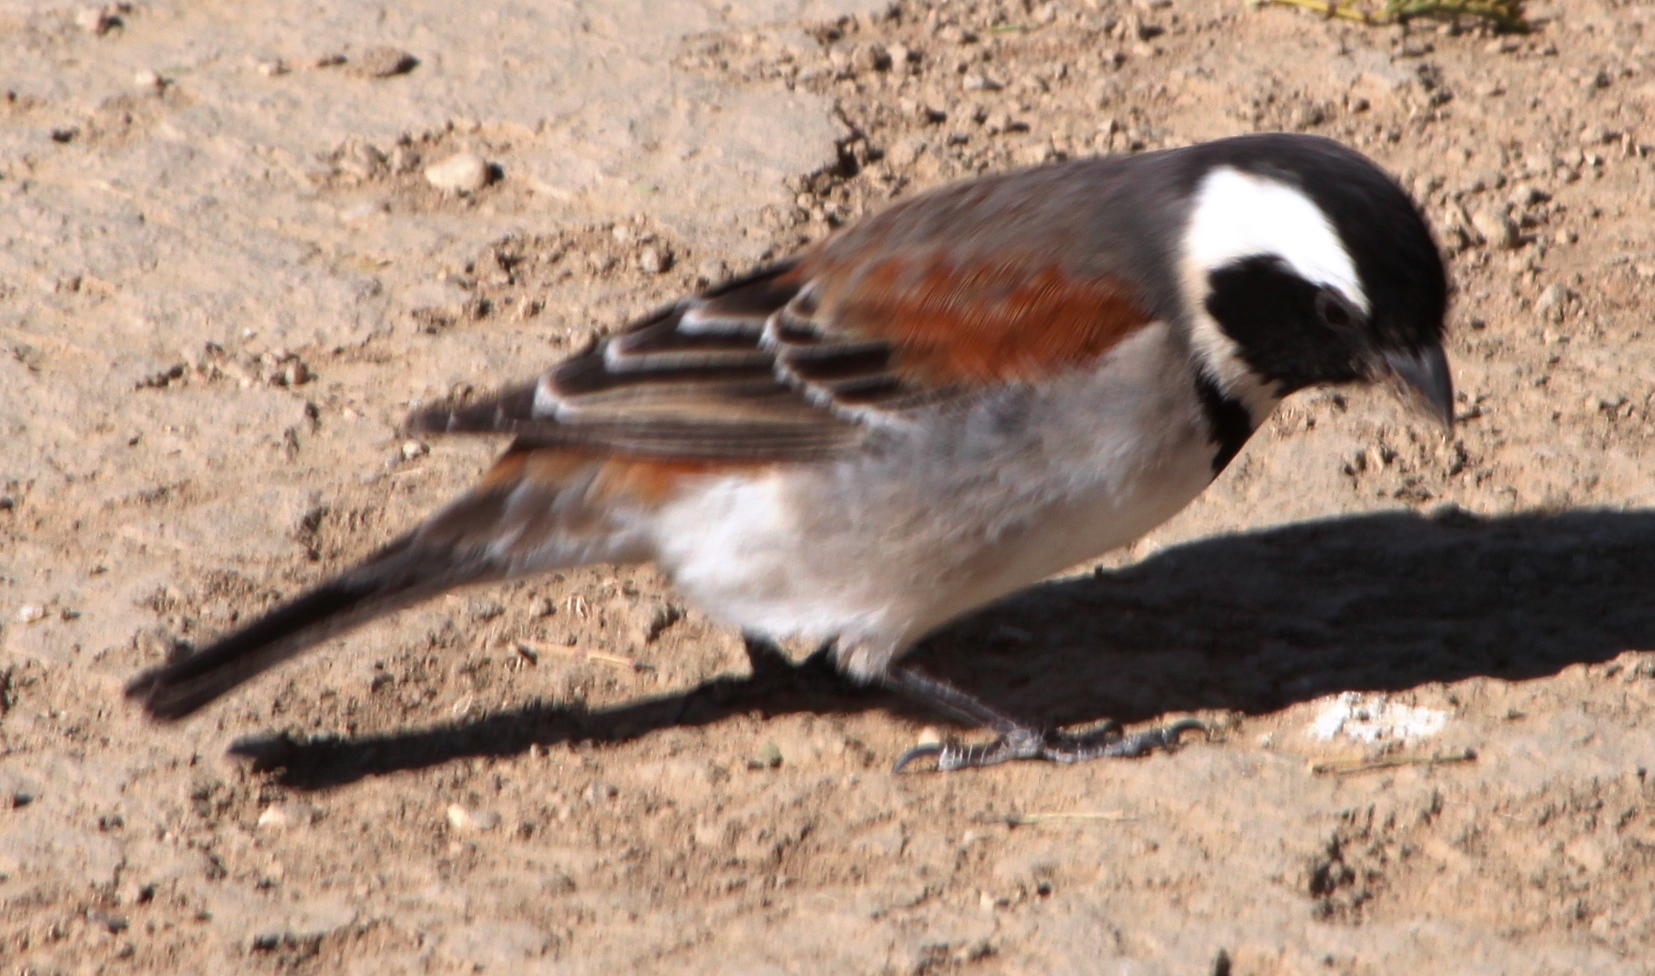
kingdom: Animalia
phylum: Chordata
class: Aves
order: Passeriformes
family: Passeridae
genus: Passer
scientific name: Passer melanurus
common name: Cape sparrow
